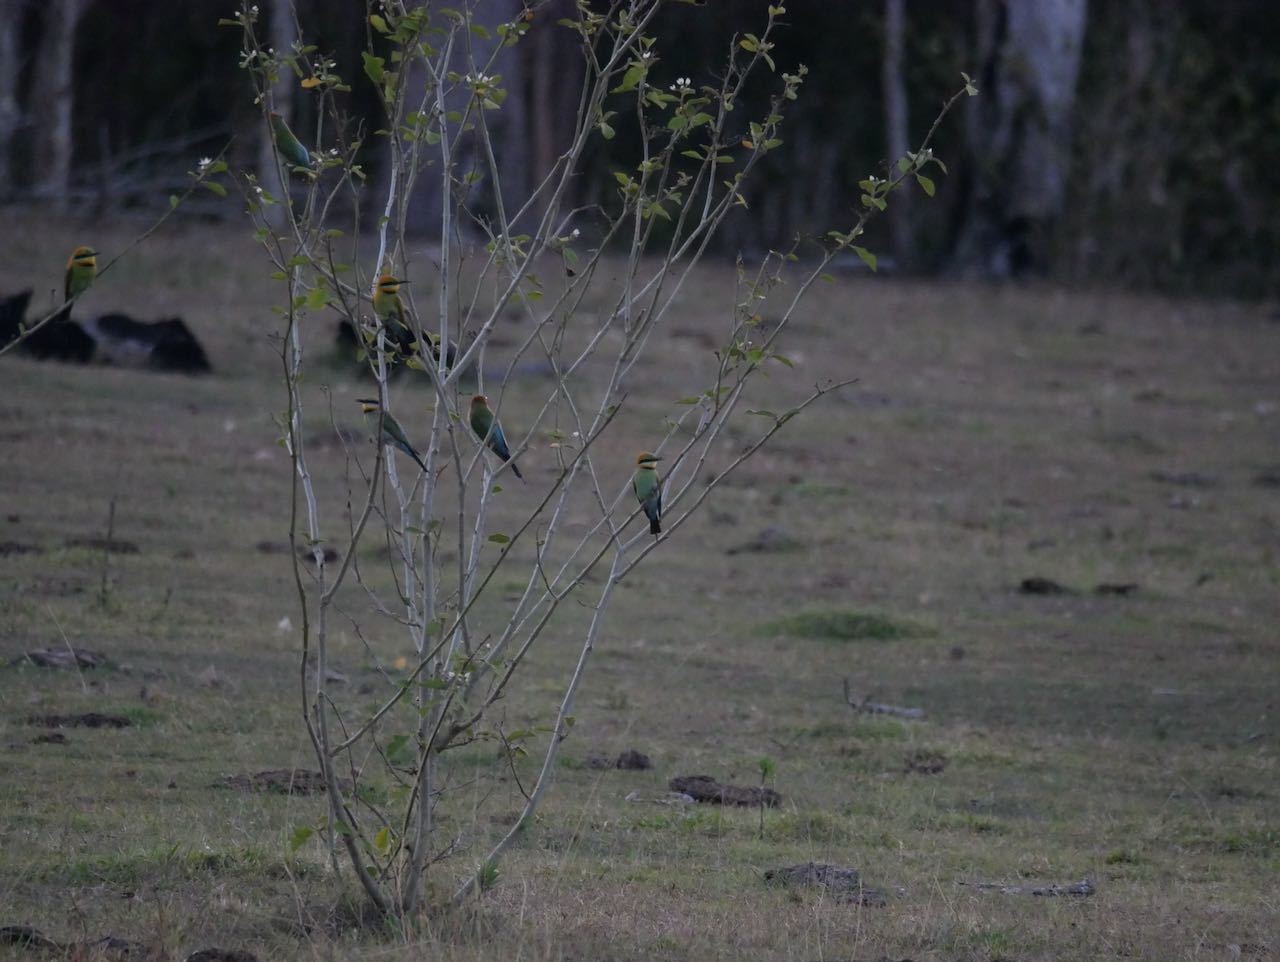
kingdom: Animalia
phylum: Chordata
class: Aves
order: Coraciiformes
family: Meropidae
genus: Merops
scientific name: Merops ornatus
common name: Rainbow bee-eater
